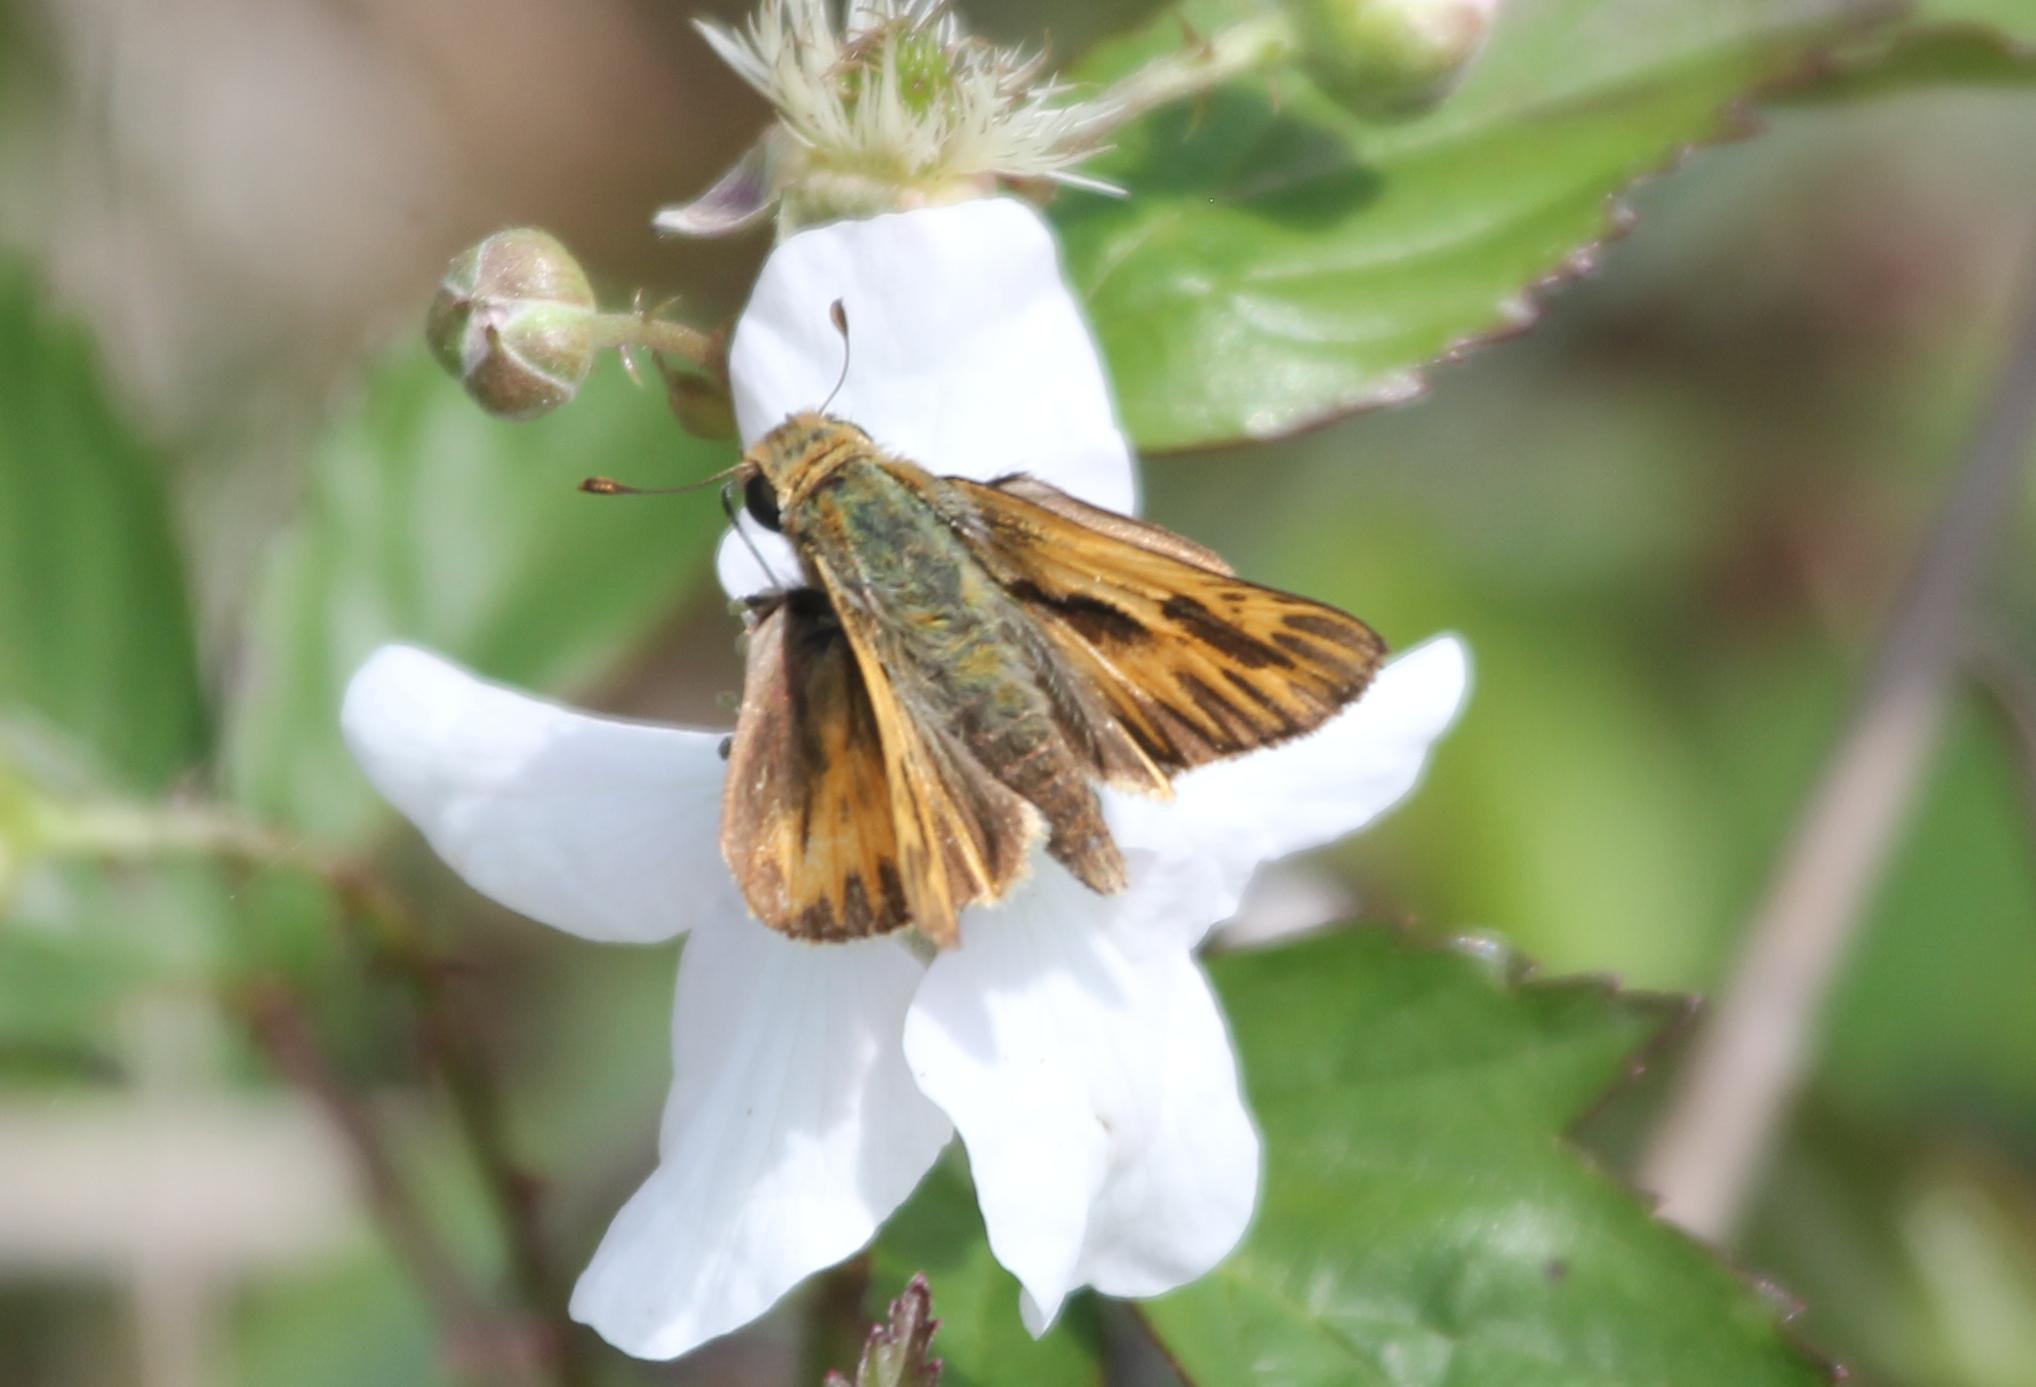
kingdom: Animalia
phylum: Arthropoda
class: Insecta
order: Lepidoptera
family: Hesperiidae
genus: Hylephila
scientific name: Hylephila phyleus
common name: Fiery skipper
